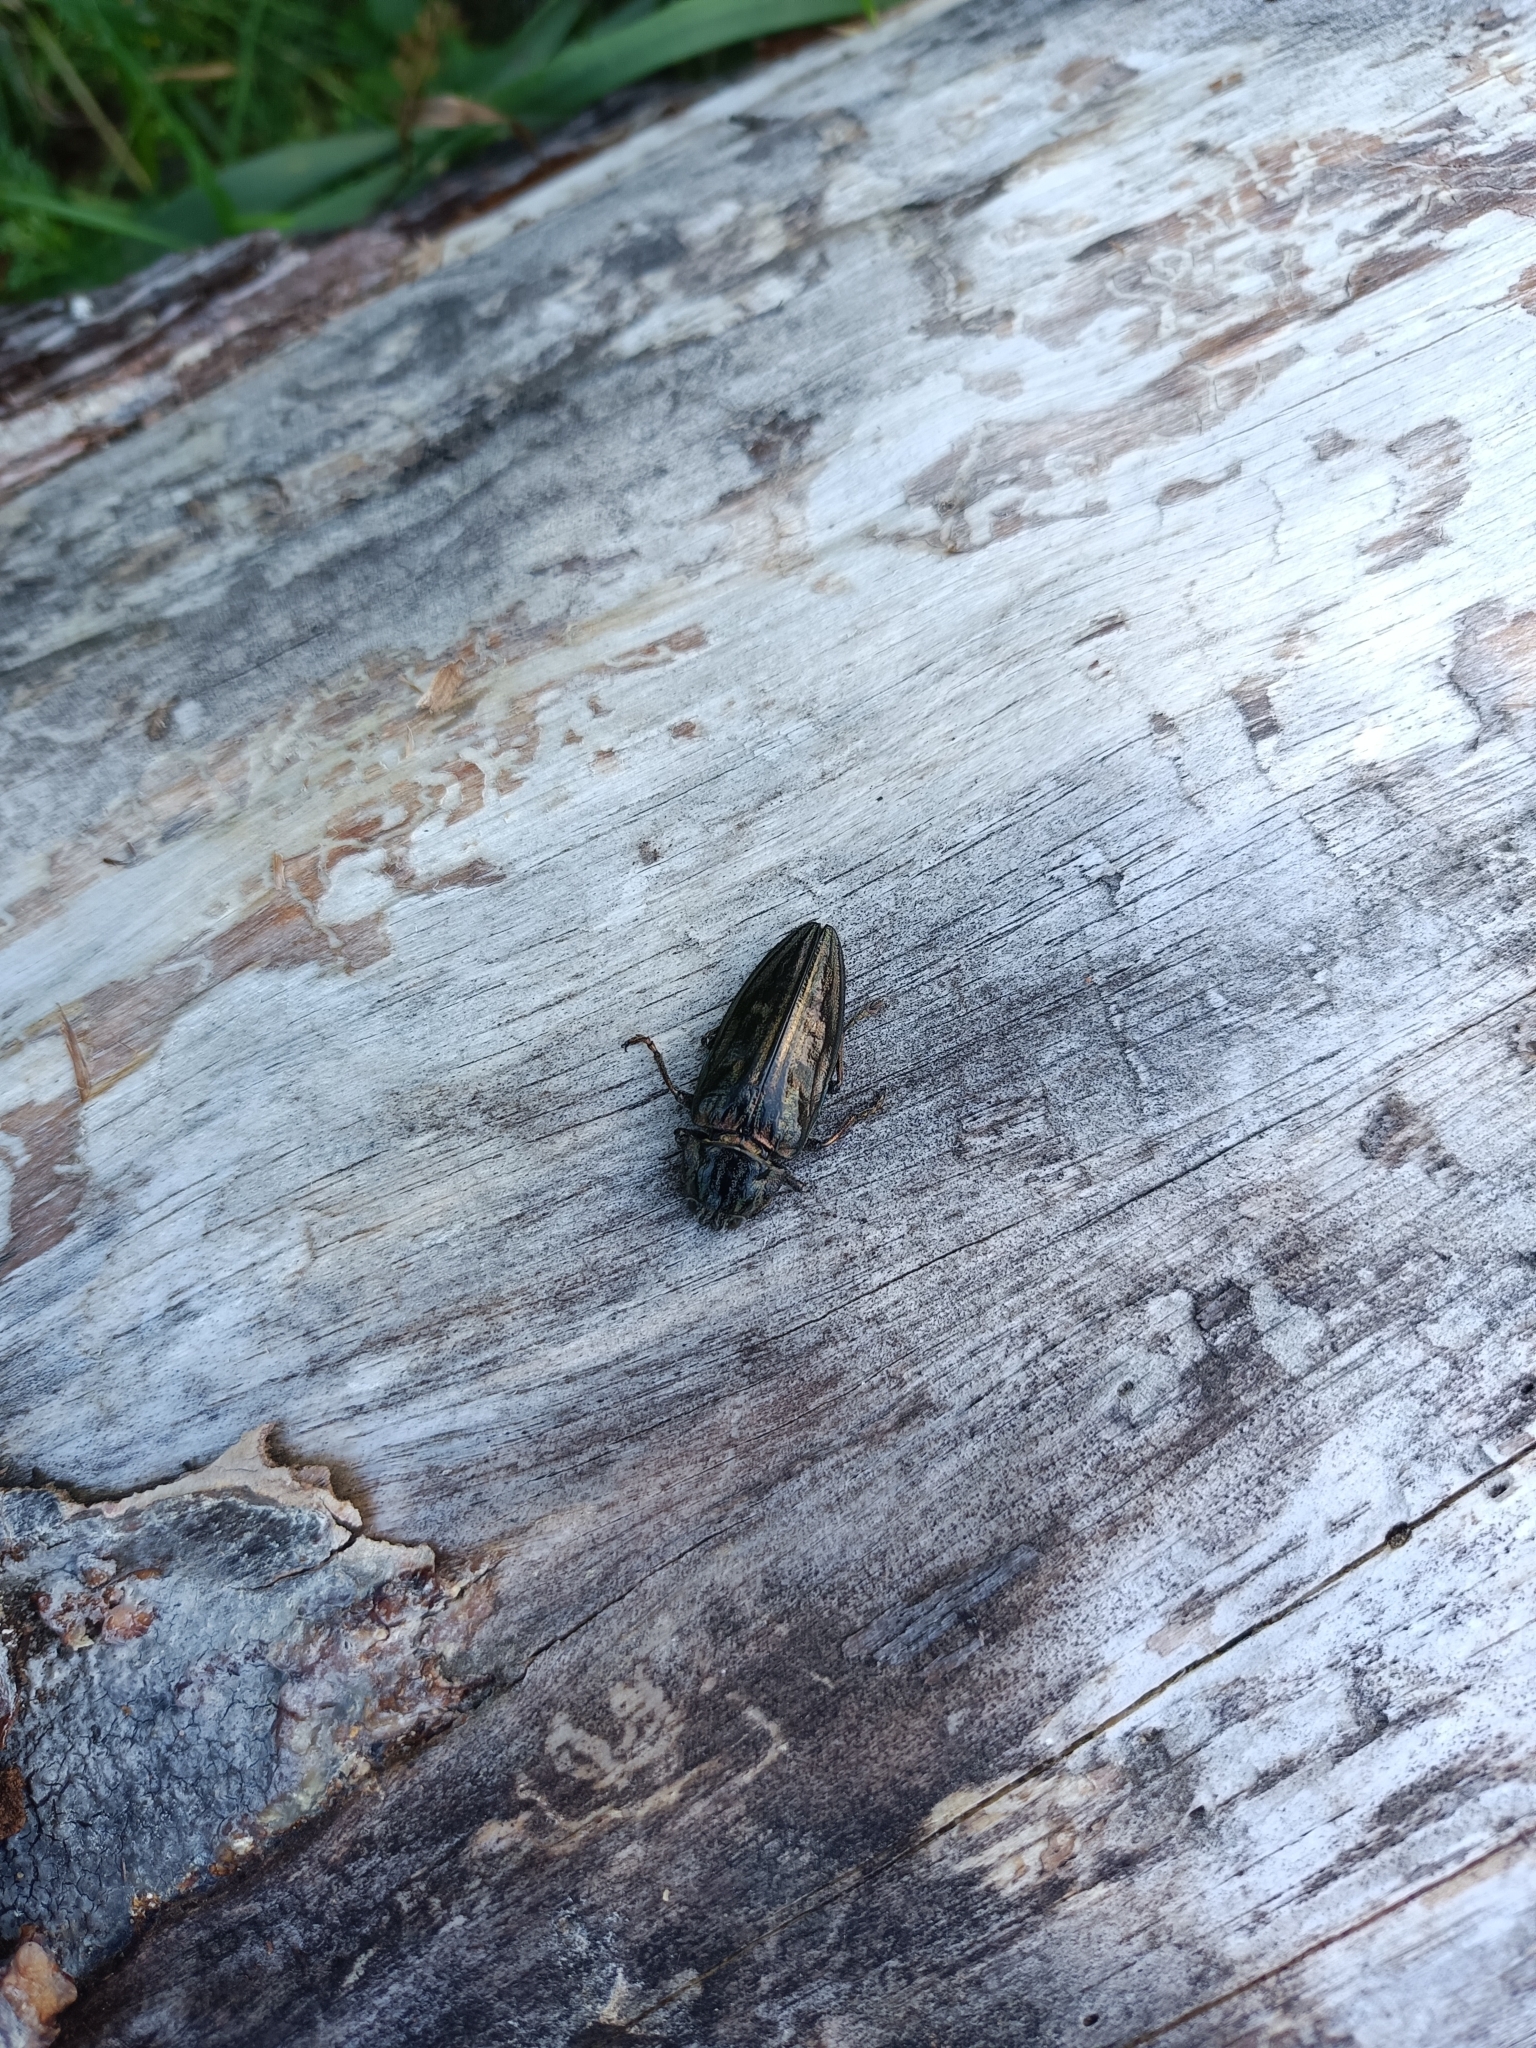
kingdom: Animalia
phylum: Arthropoda
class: Insecta
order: Coleoptera
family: Buprestidae
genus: Chalcophora
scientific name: Chalcophora mariana
